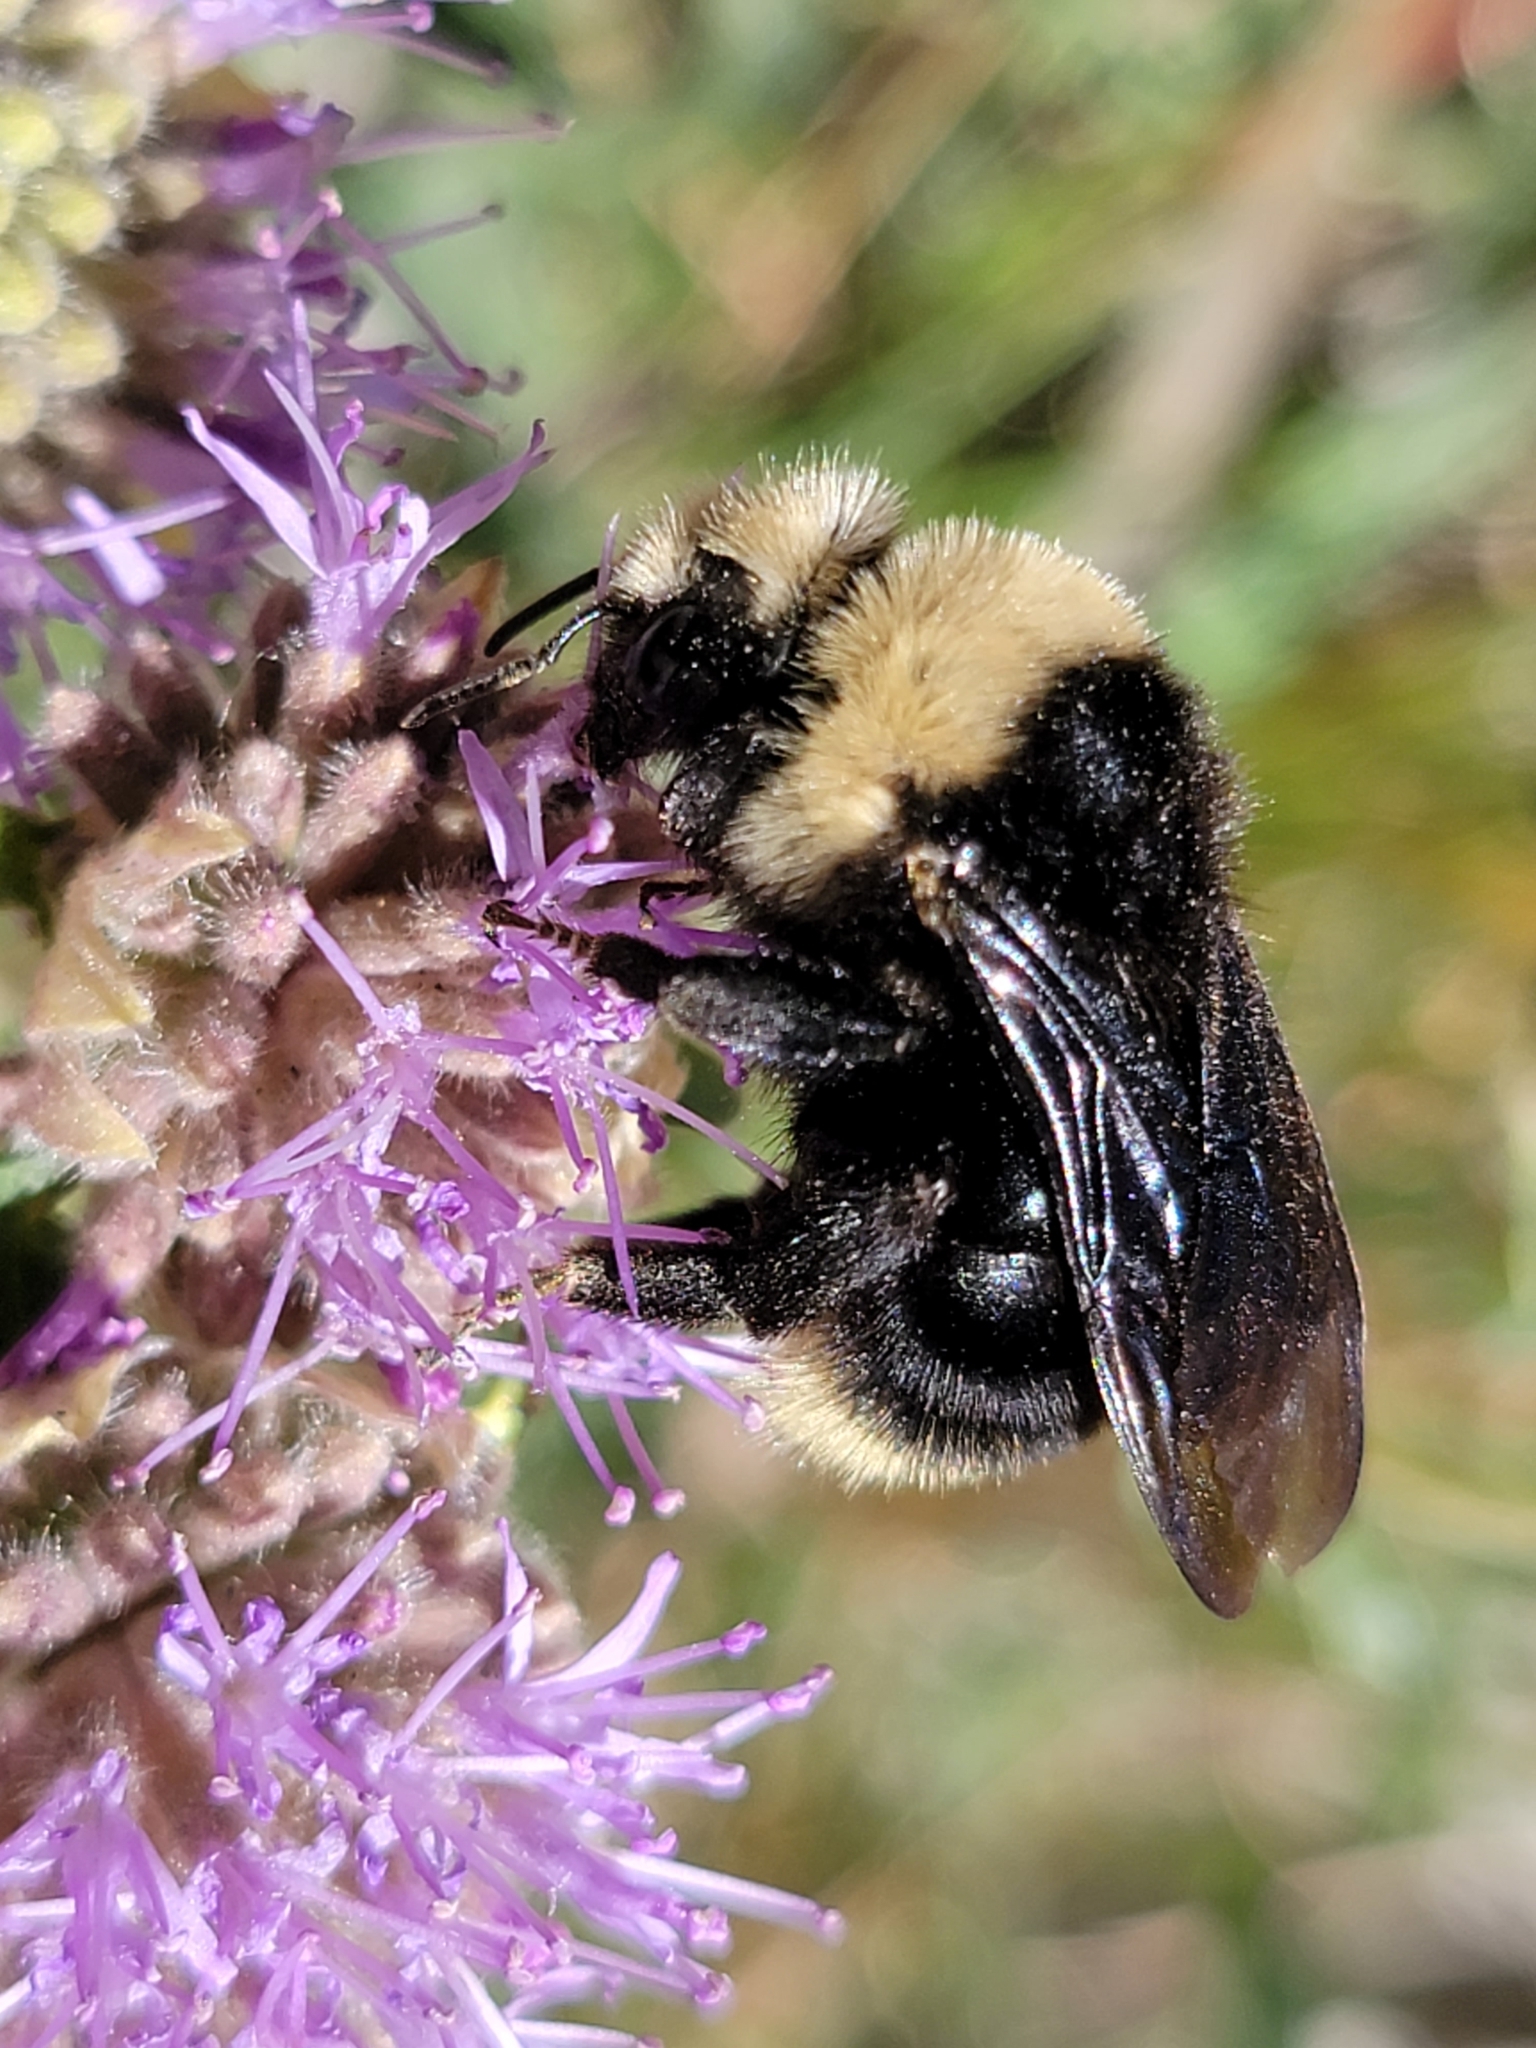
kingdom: Animalia
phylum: Arthropoda
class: Insecta
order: Hymenoptera
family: Apidae
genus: Bombus
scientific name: Bombus insularis
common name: Indiscriminate cuckoo bumble bee
